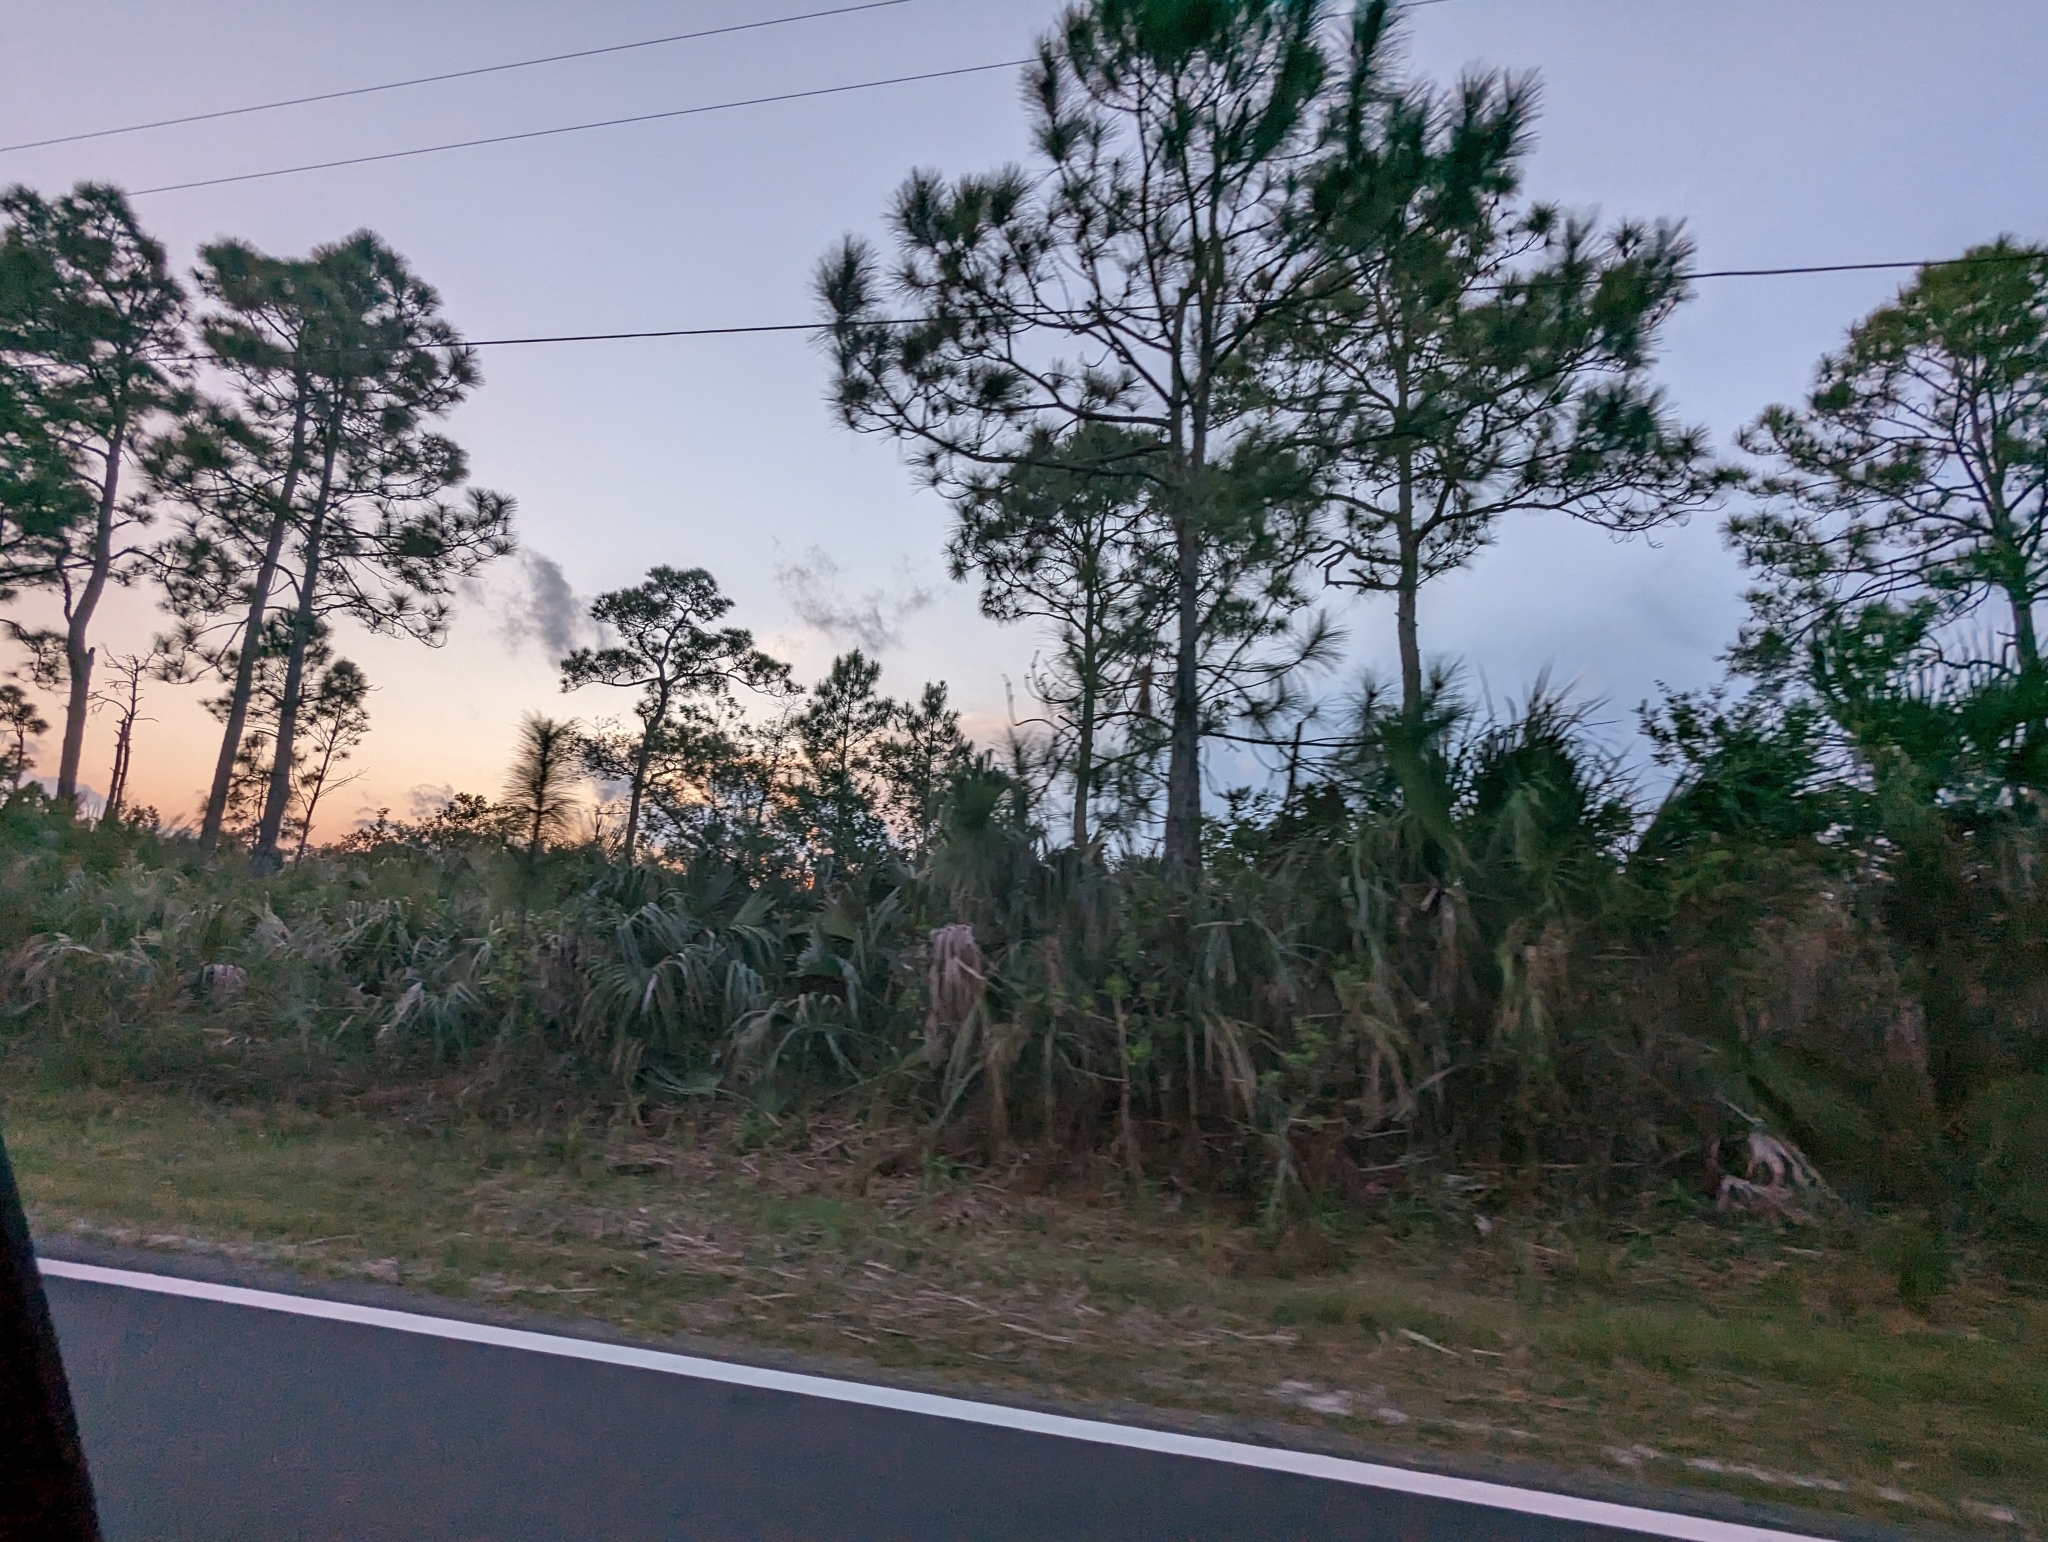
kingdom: Plantae
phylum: Tracheophyta
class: Pinopsida
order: Pinales
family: Pinaceae
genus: Pinus
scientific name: Pinus elliottii
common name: Slash pine
